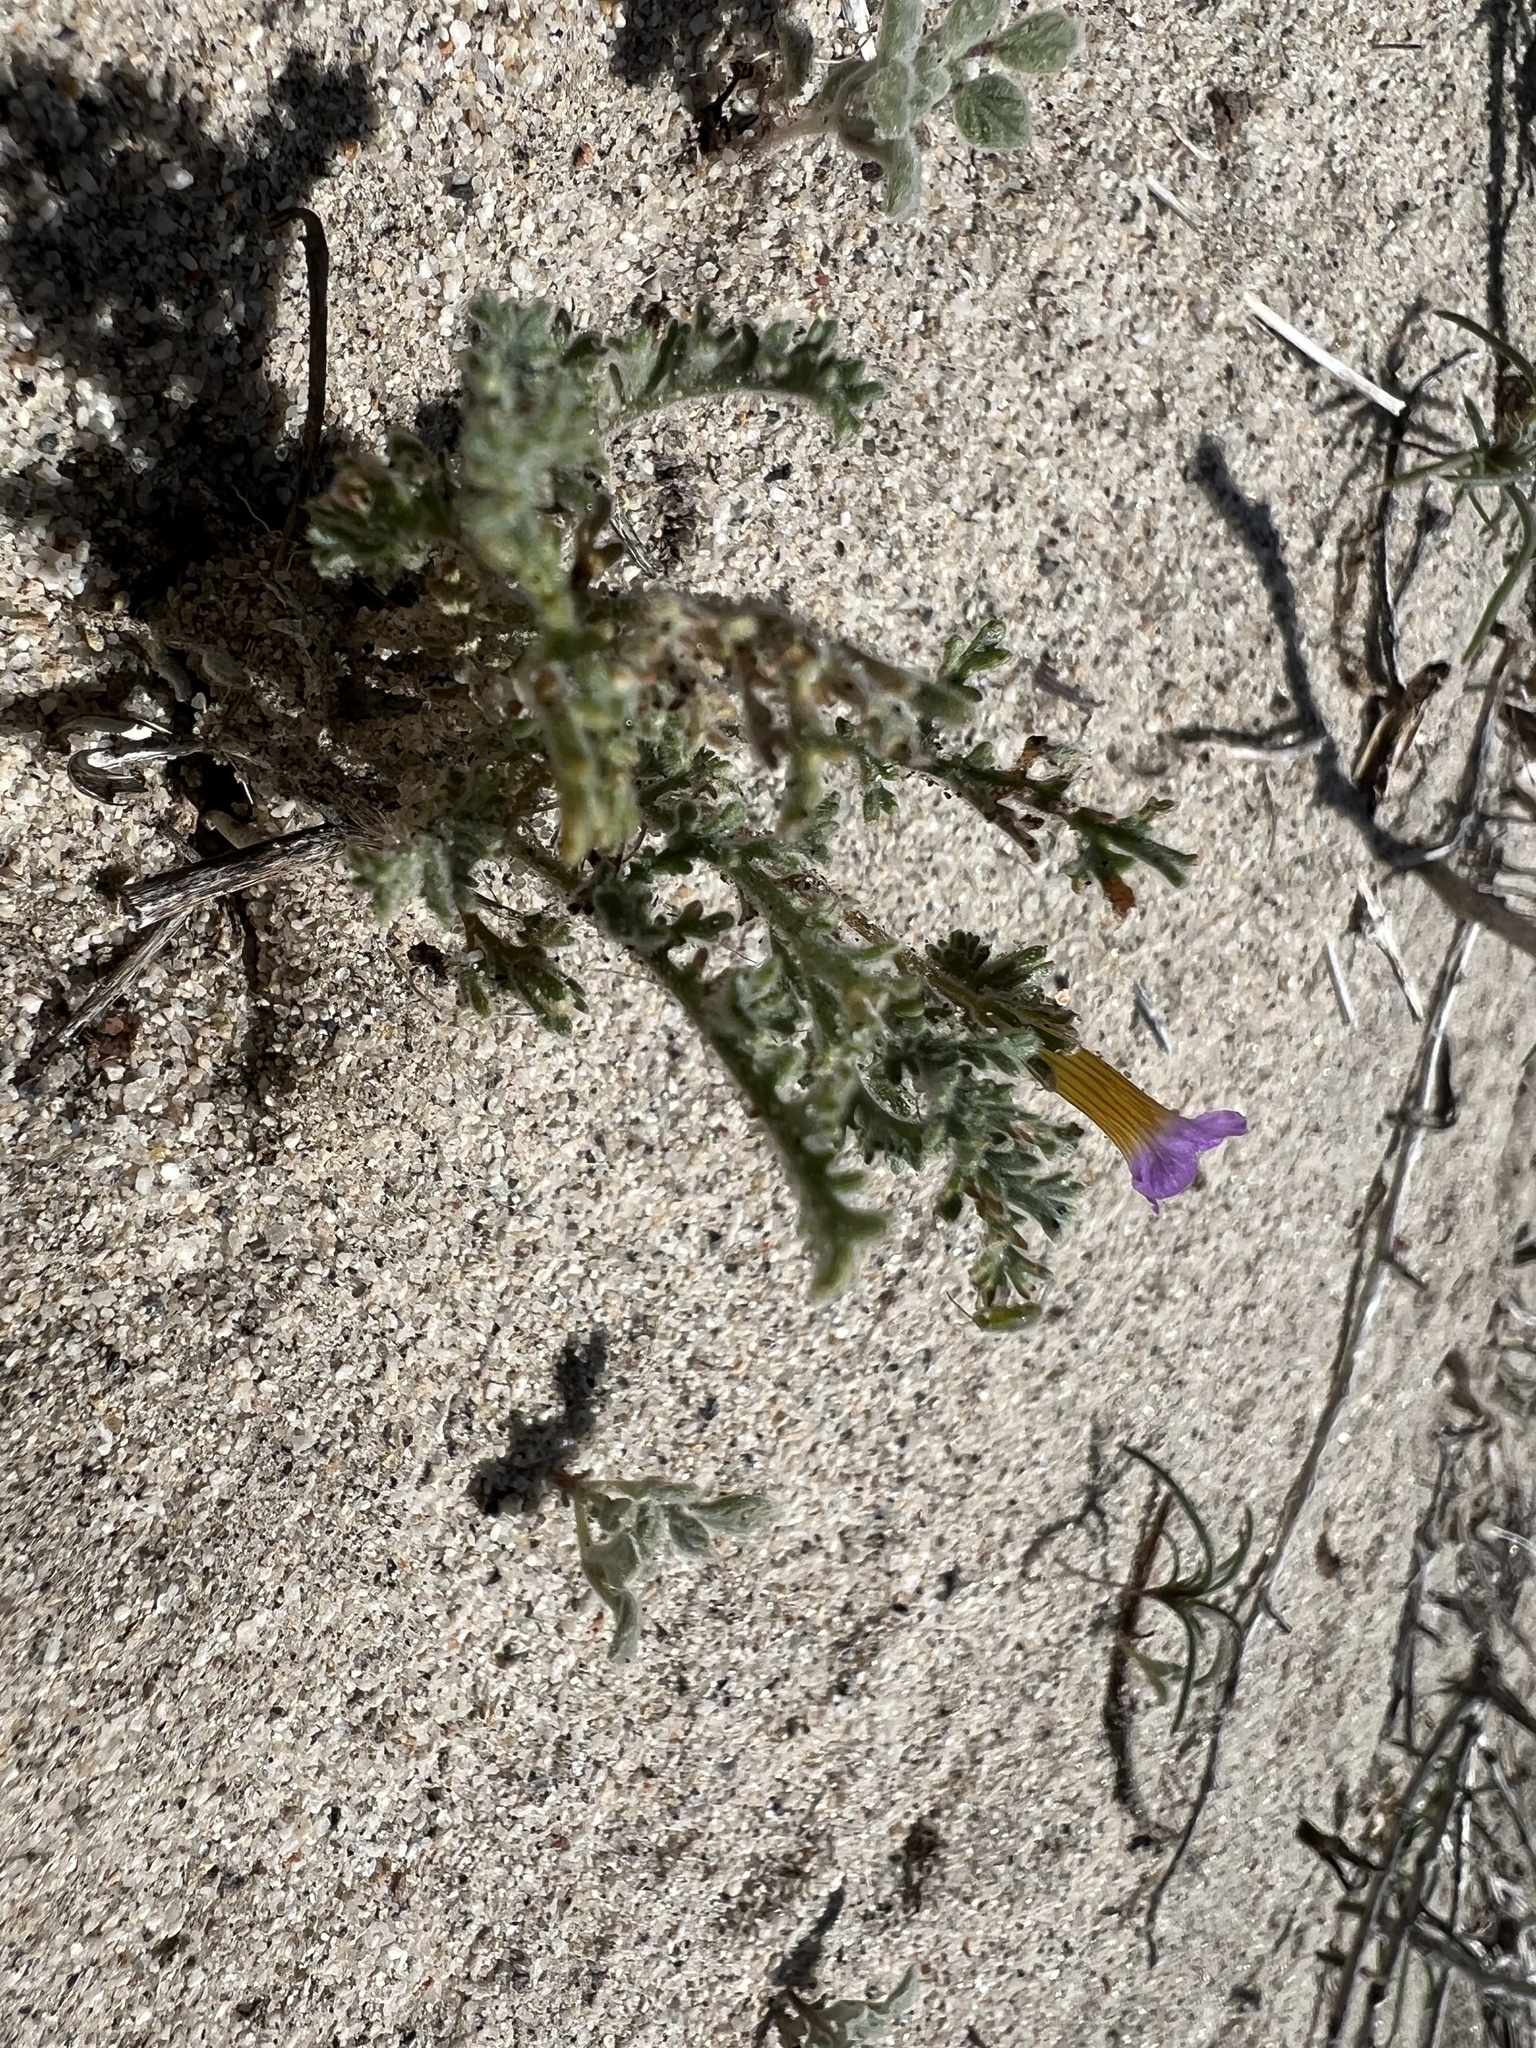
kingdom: Plantae
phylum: Tracheophyta
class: Magnoliopsida
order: Boraginales
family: Hydrophyllaceae
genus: Phacelia
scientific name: Phacelia bicolor
